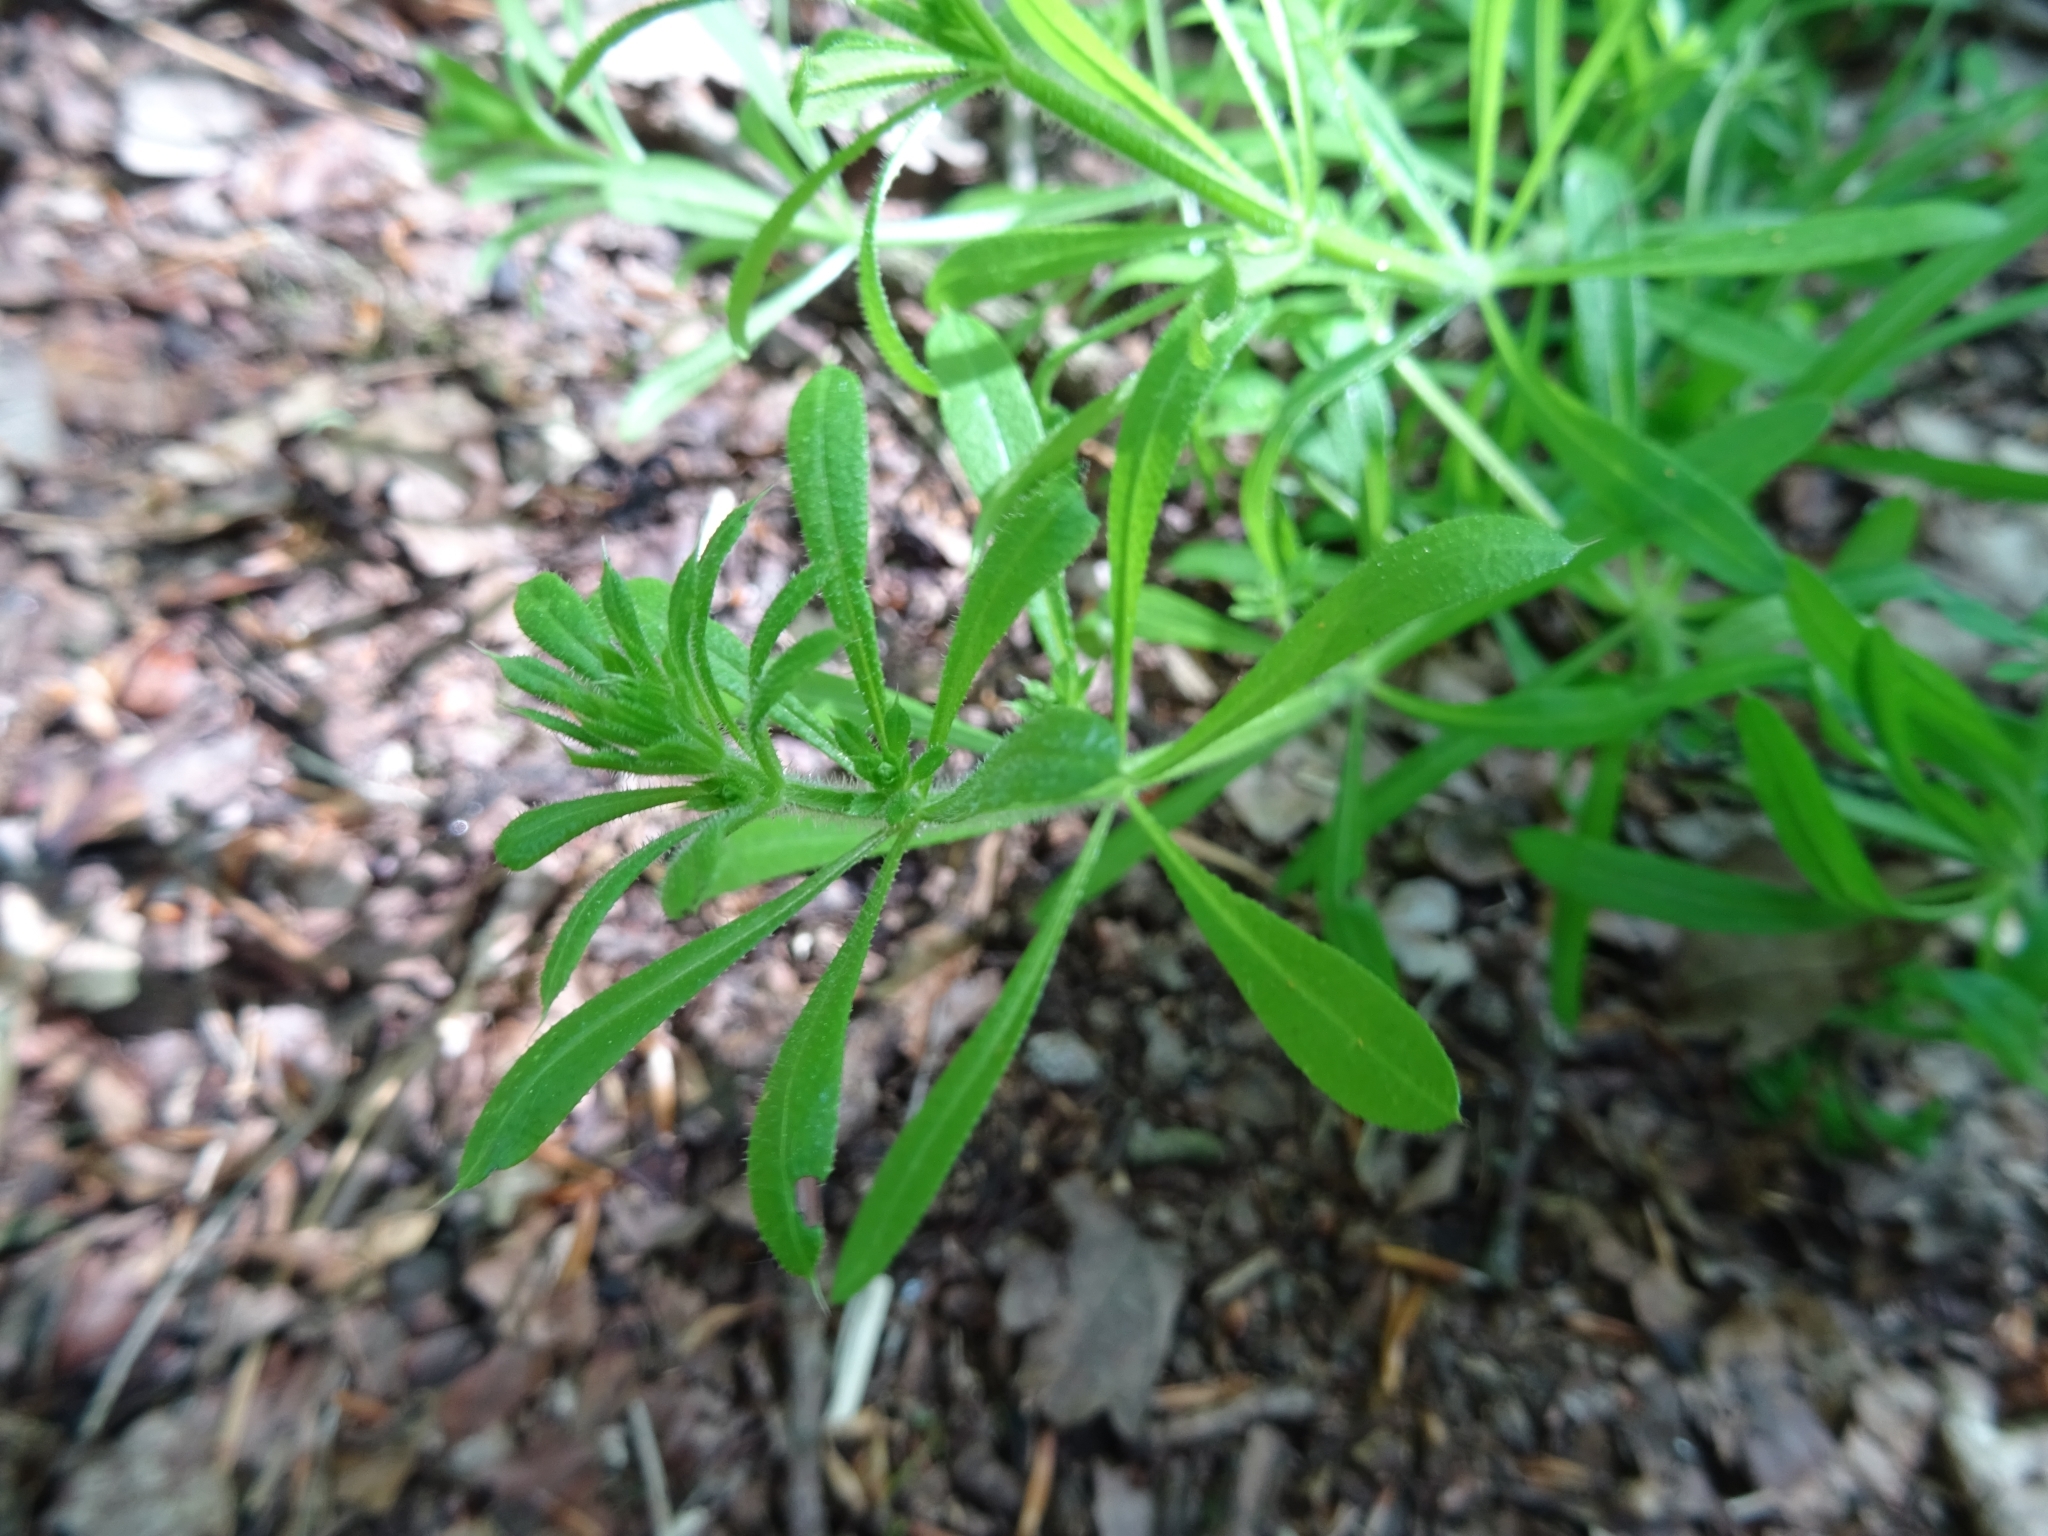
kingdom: Plantae
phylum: Tracheophyta
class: Magnoliopsida
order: Gentianales
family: Rubiaceae
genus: Galium
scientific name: Galium aparine
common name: Cleavers
